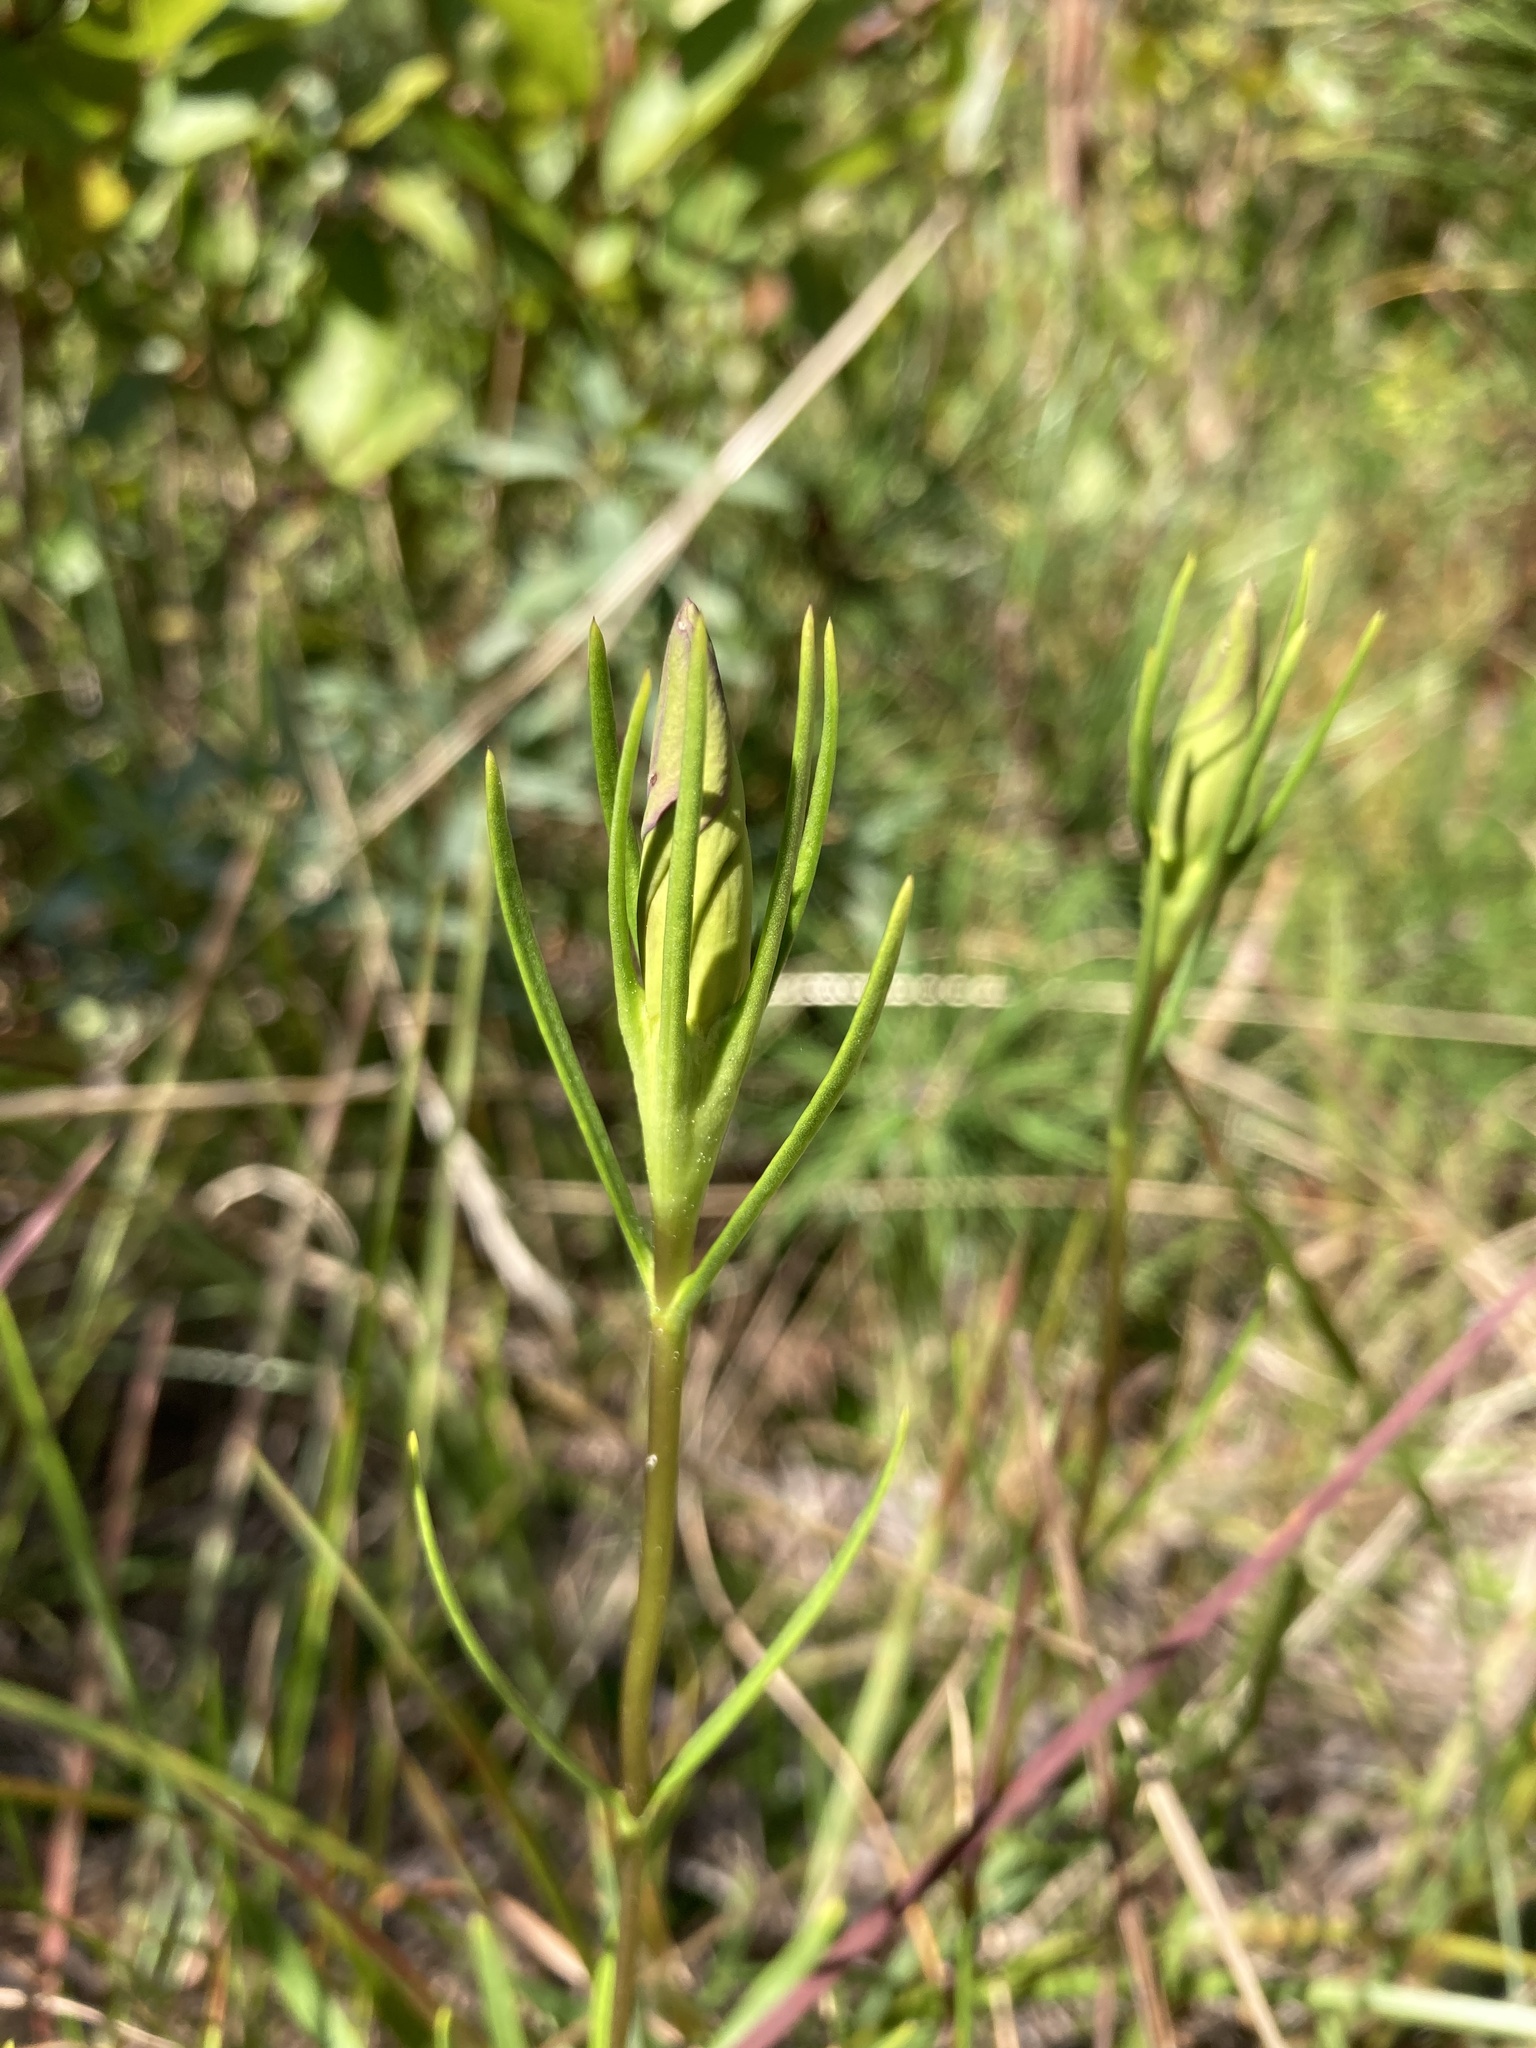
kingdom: Plantae
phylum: Tracheophyta
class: Magnoliopsida
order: Gentianales
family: Gentianaceae
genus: Gentiana
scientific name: Gentiana autumnalis
